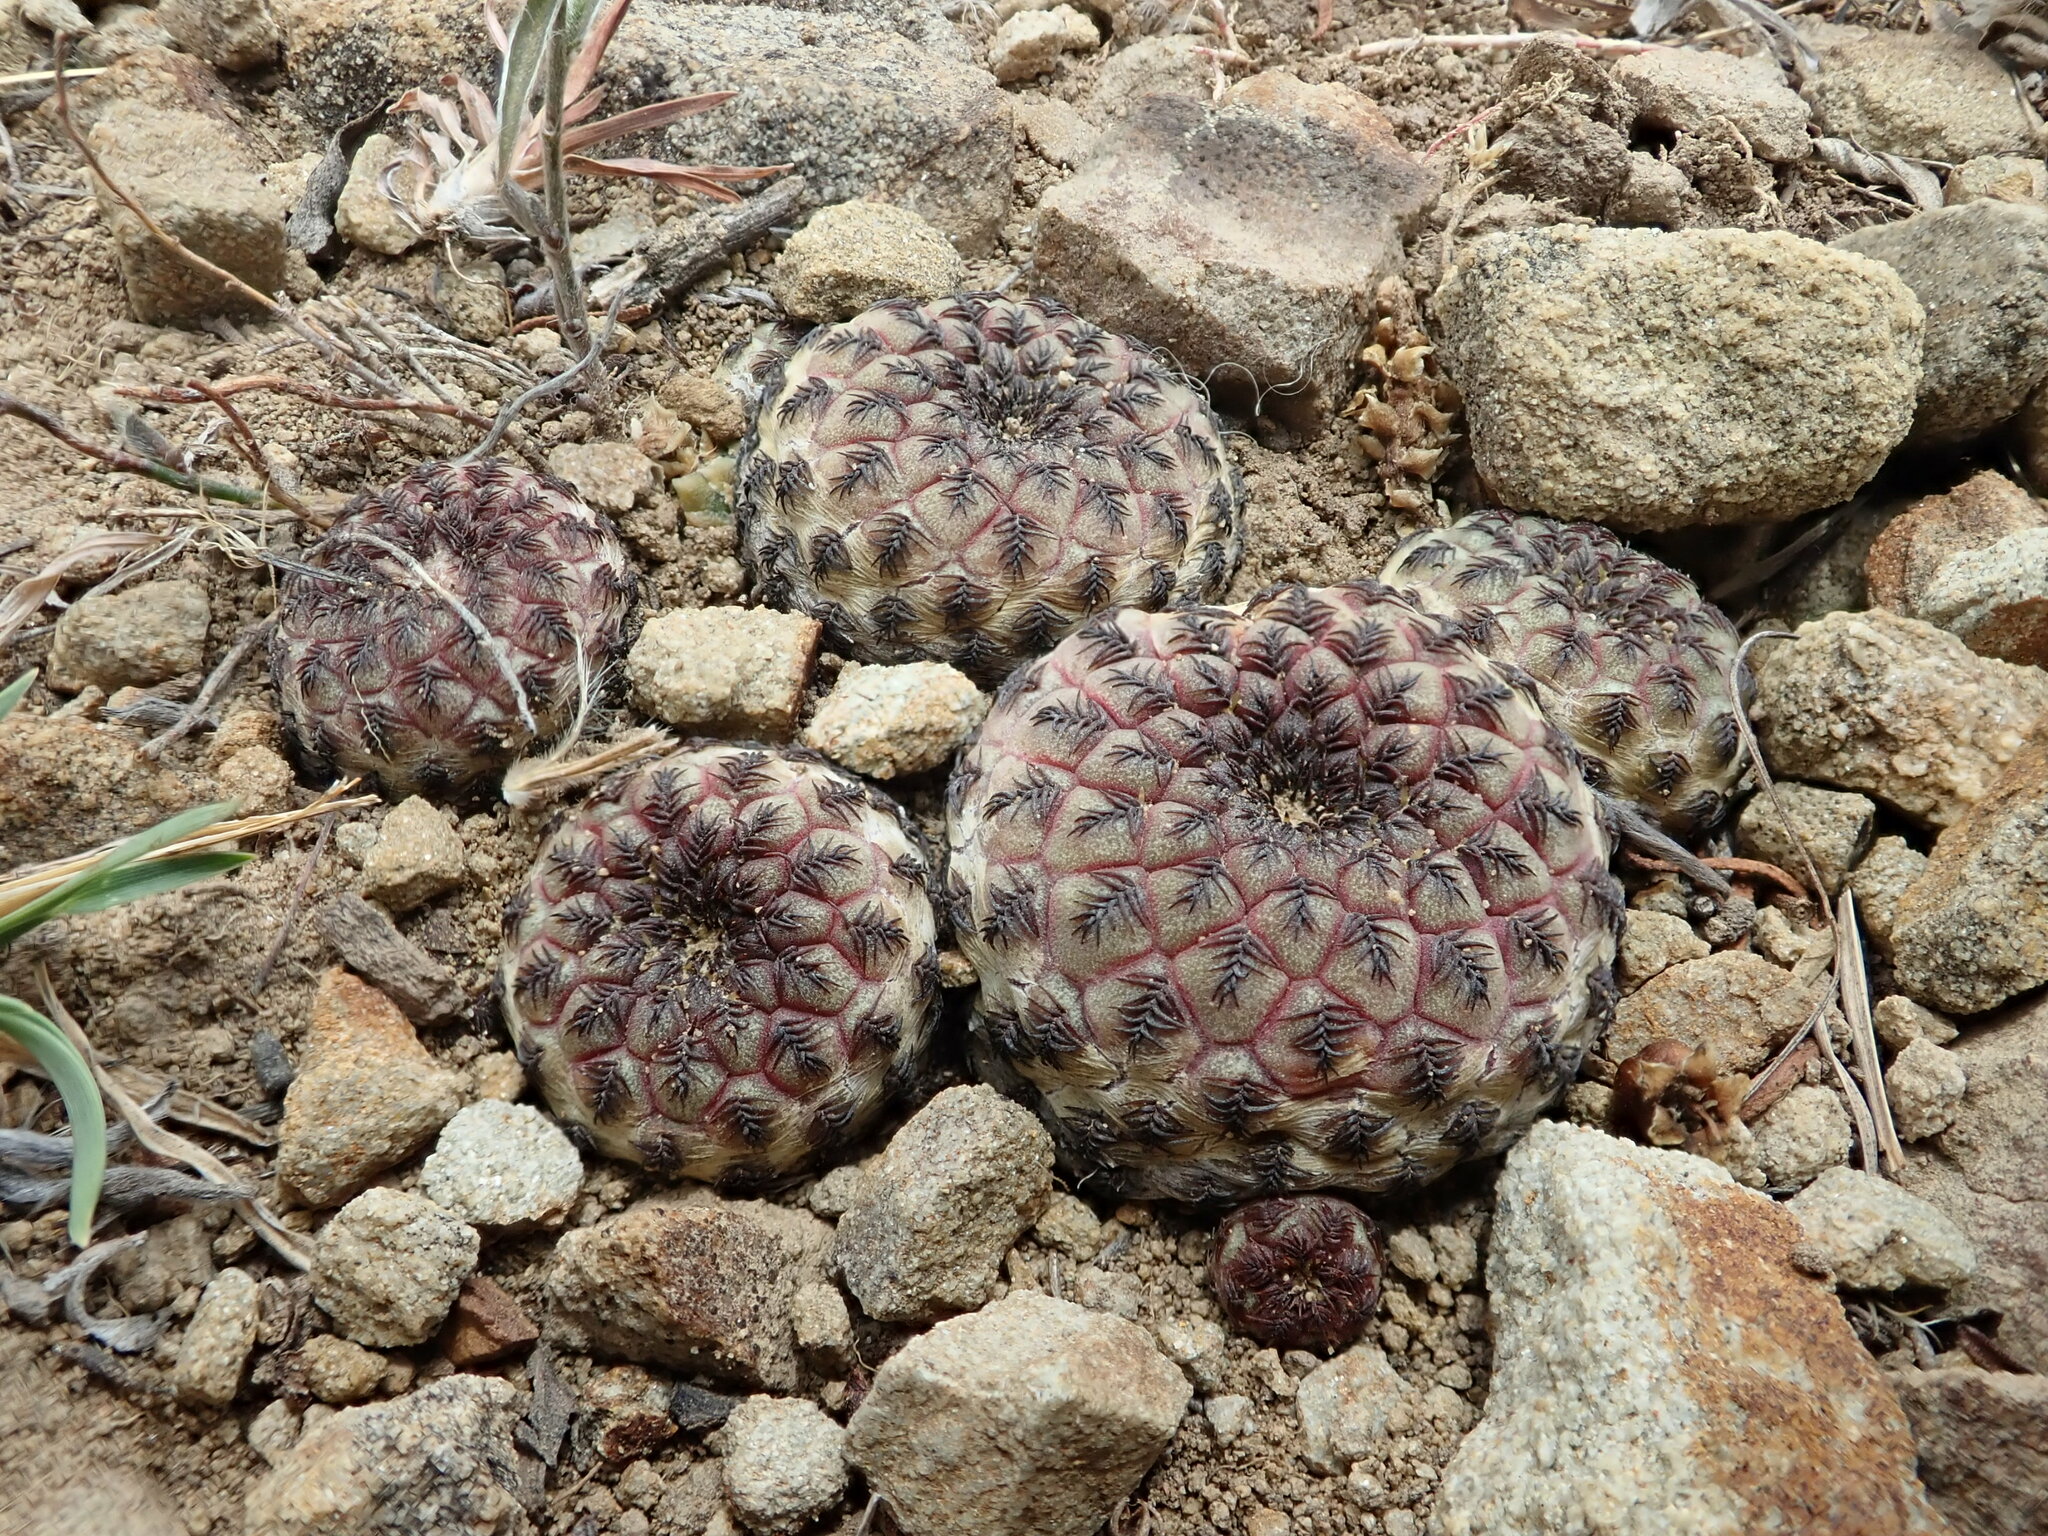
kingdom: Plantae
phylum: Tracheophyta
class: Magnoliopsida
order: Caryophyllales
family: Cactaceae
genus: Weingartia
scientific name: Weingartia canigueralii
